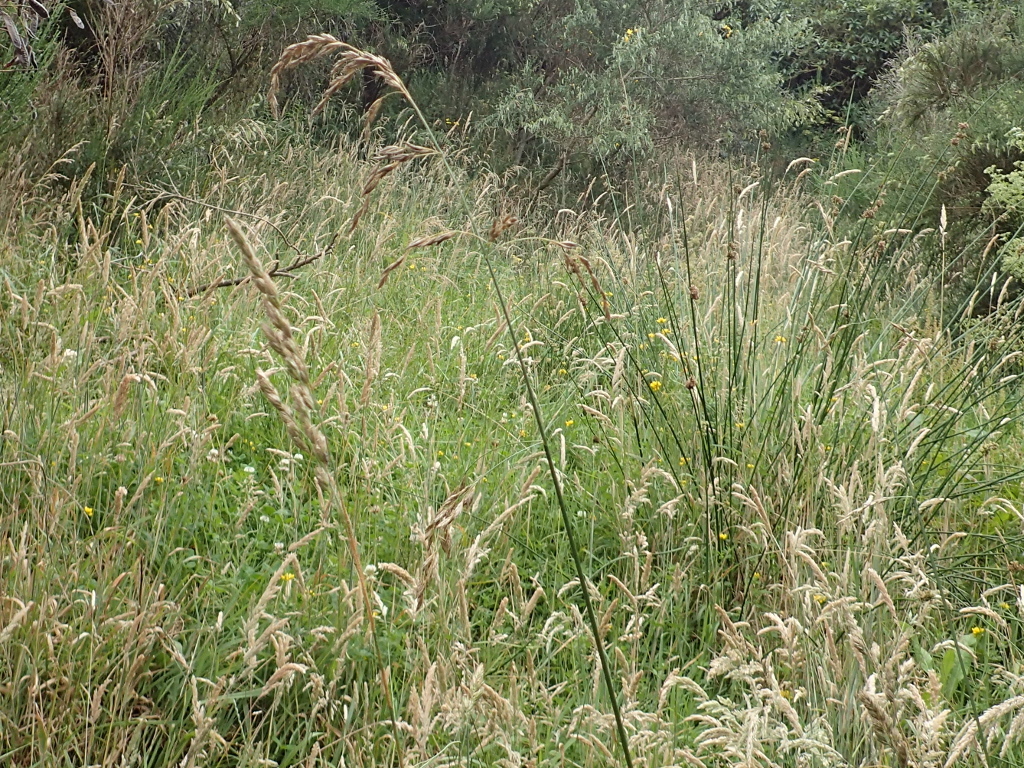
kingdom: Plantae
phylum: Tracheophyta
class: Liliopsida
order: Poales
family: Poaceae
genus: Lolium
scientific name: Lolium arundinaceum
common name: Reed fescue
